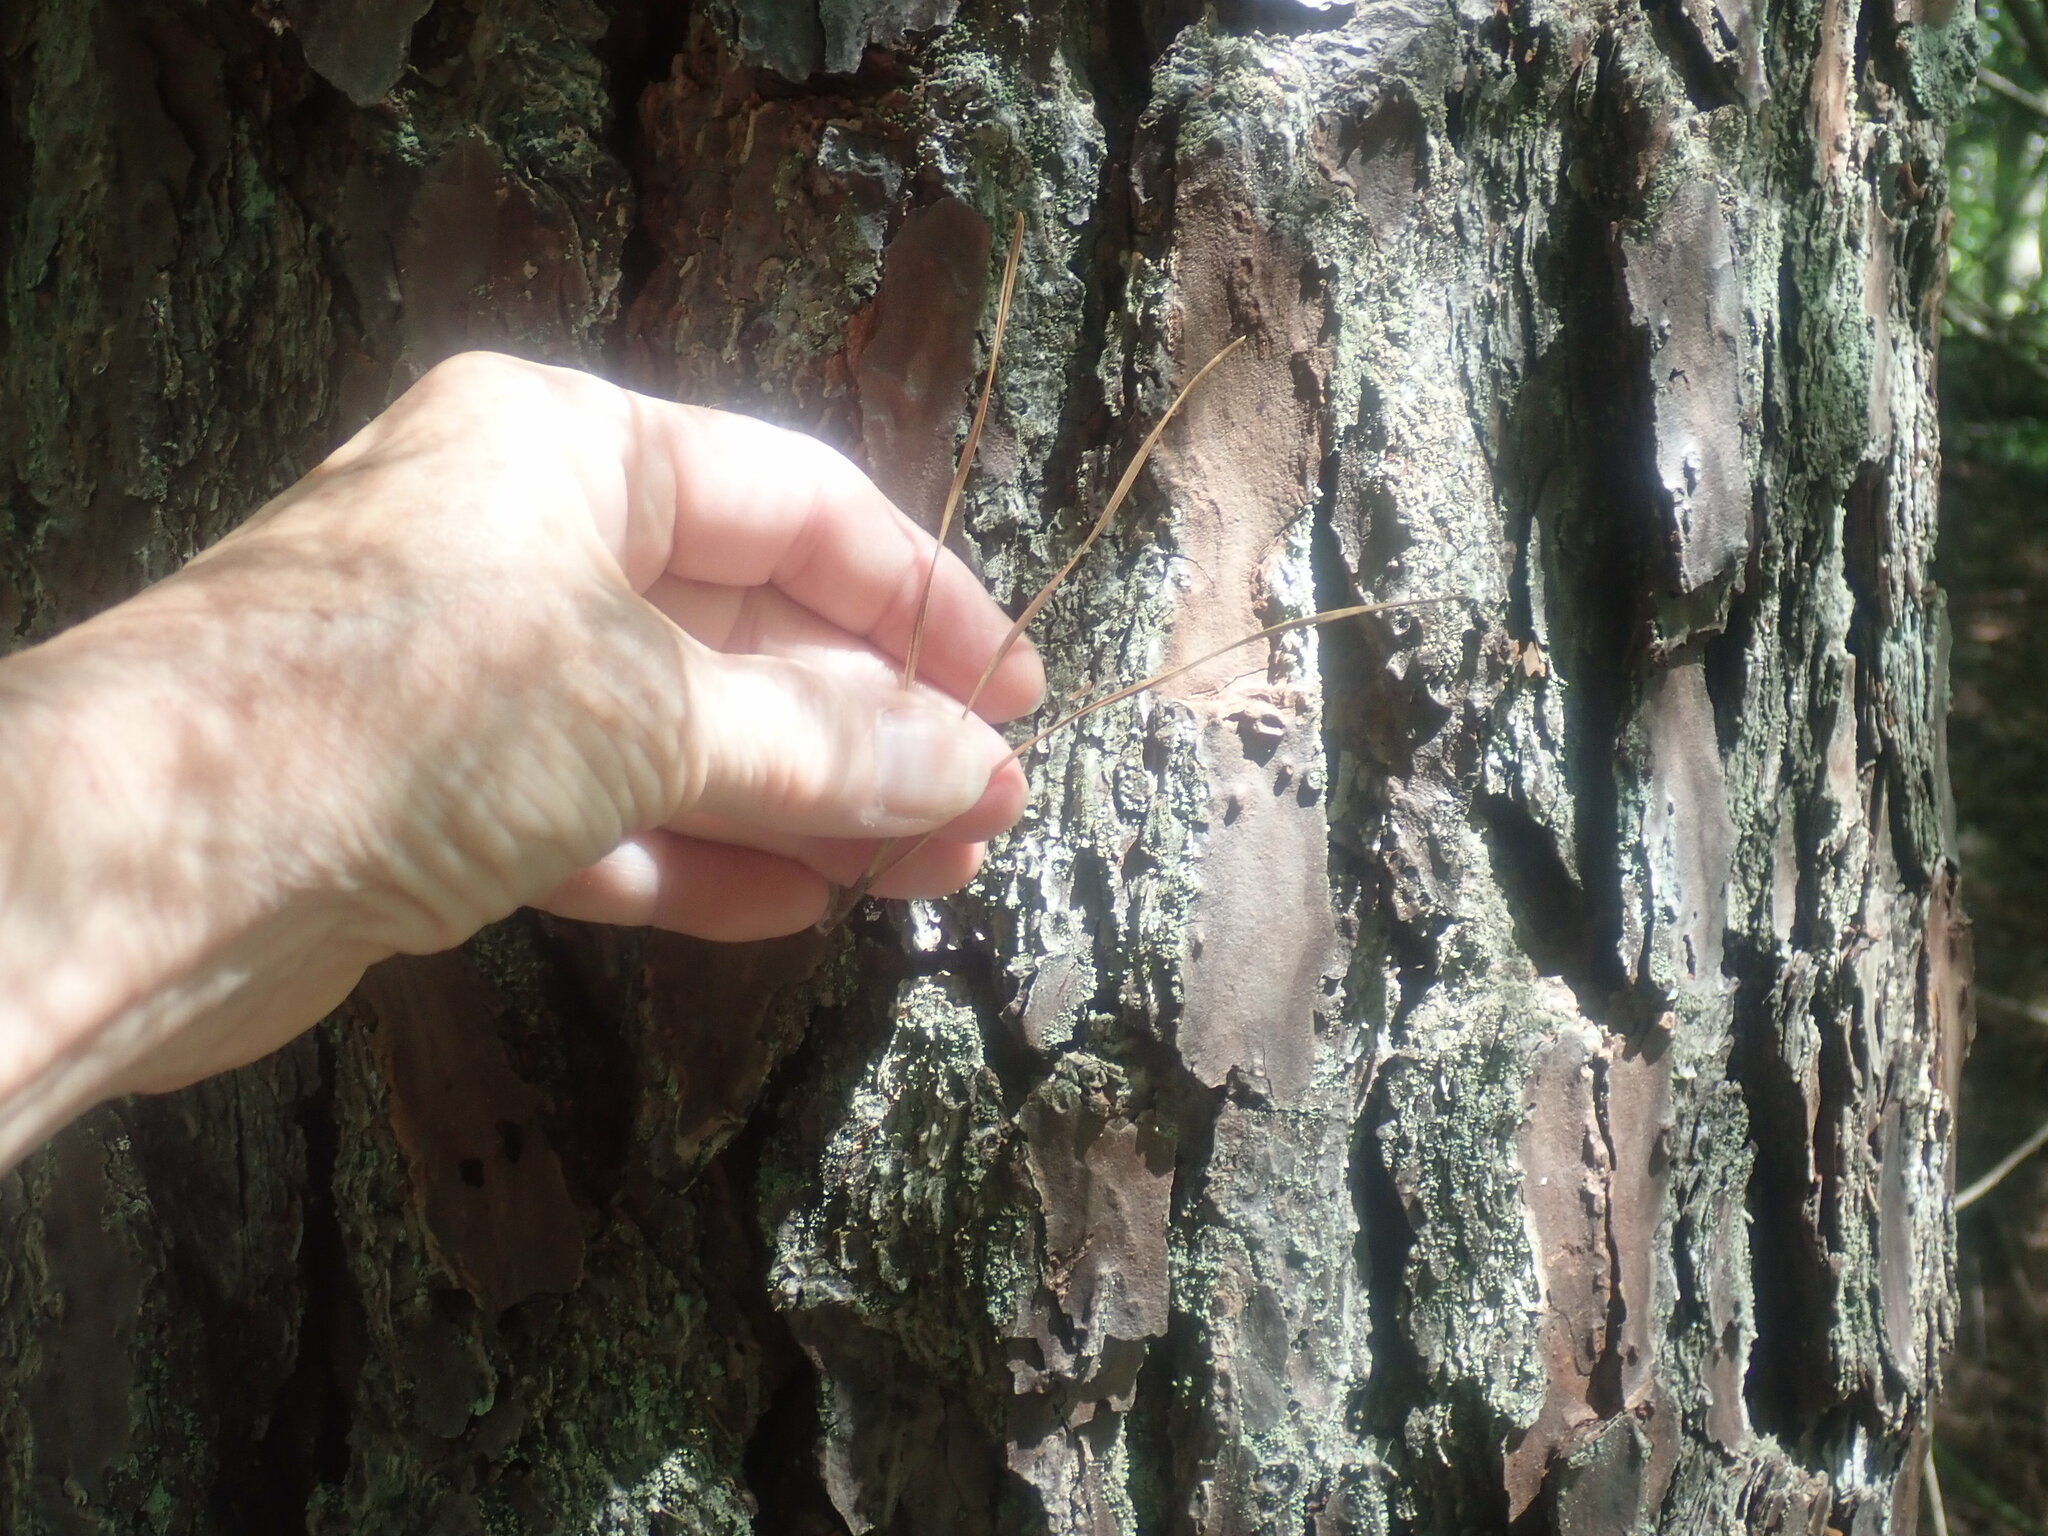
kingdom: Plantae
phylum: Tracheophyta
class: Pinopsida
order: Pinales
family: Pinaceae
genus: Pinus
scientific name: Pinus rigida
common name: Pitch pine
